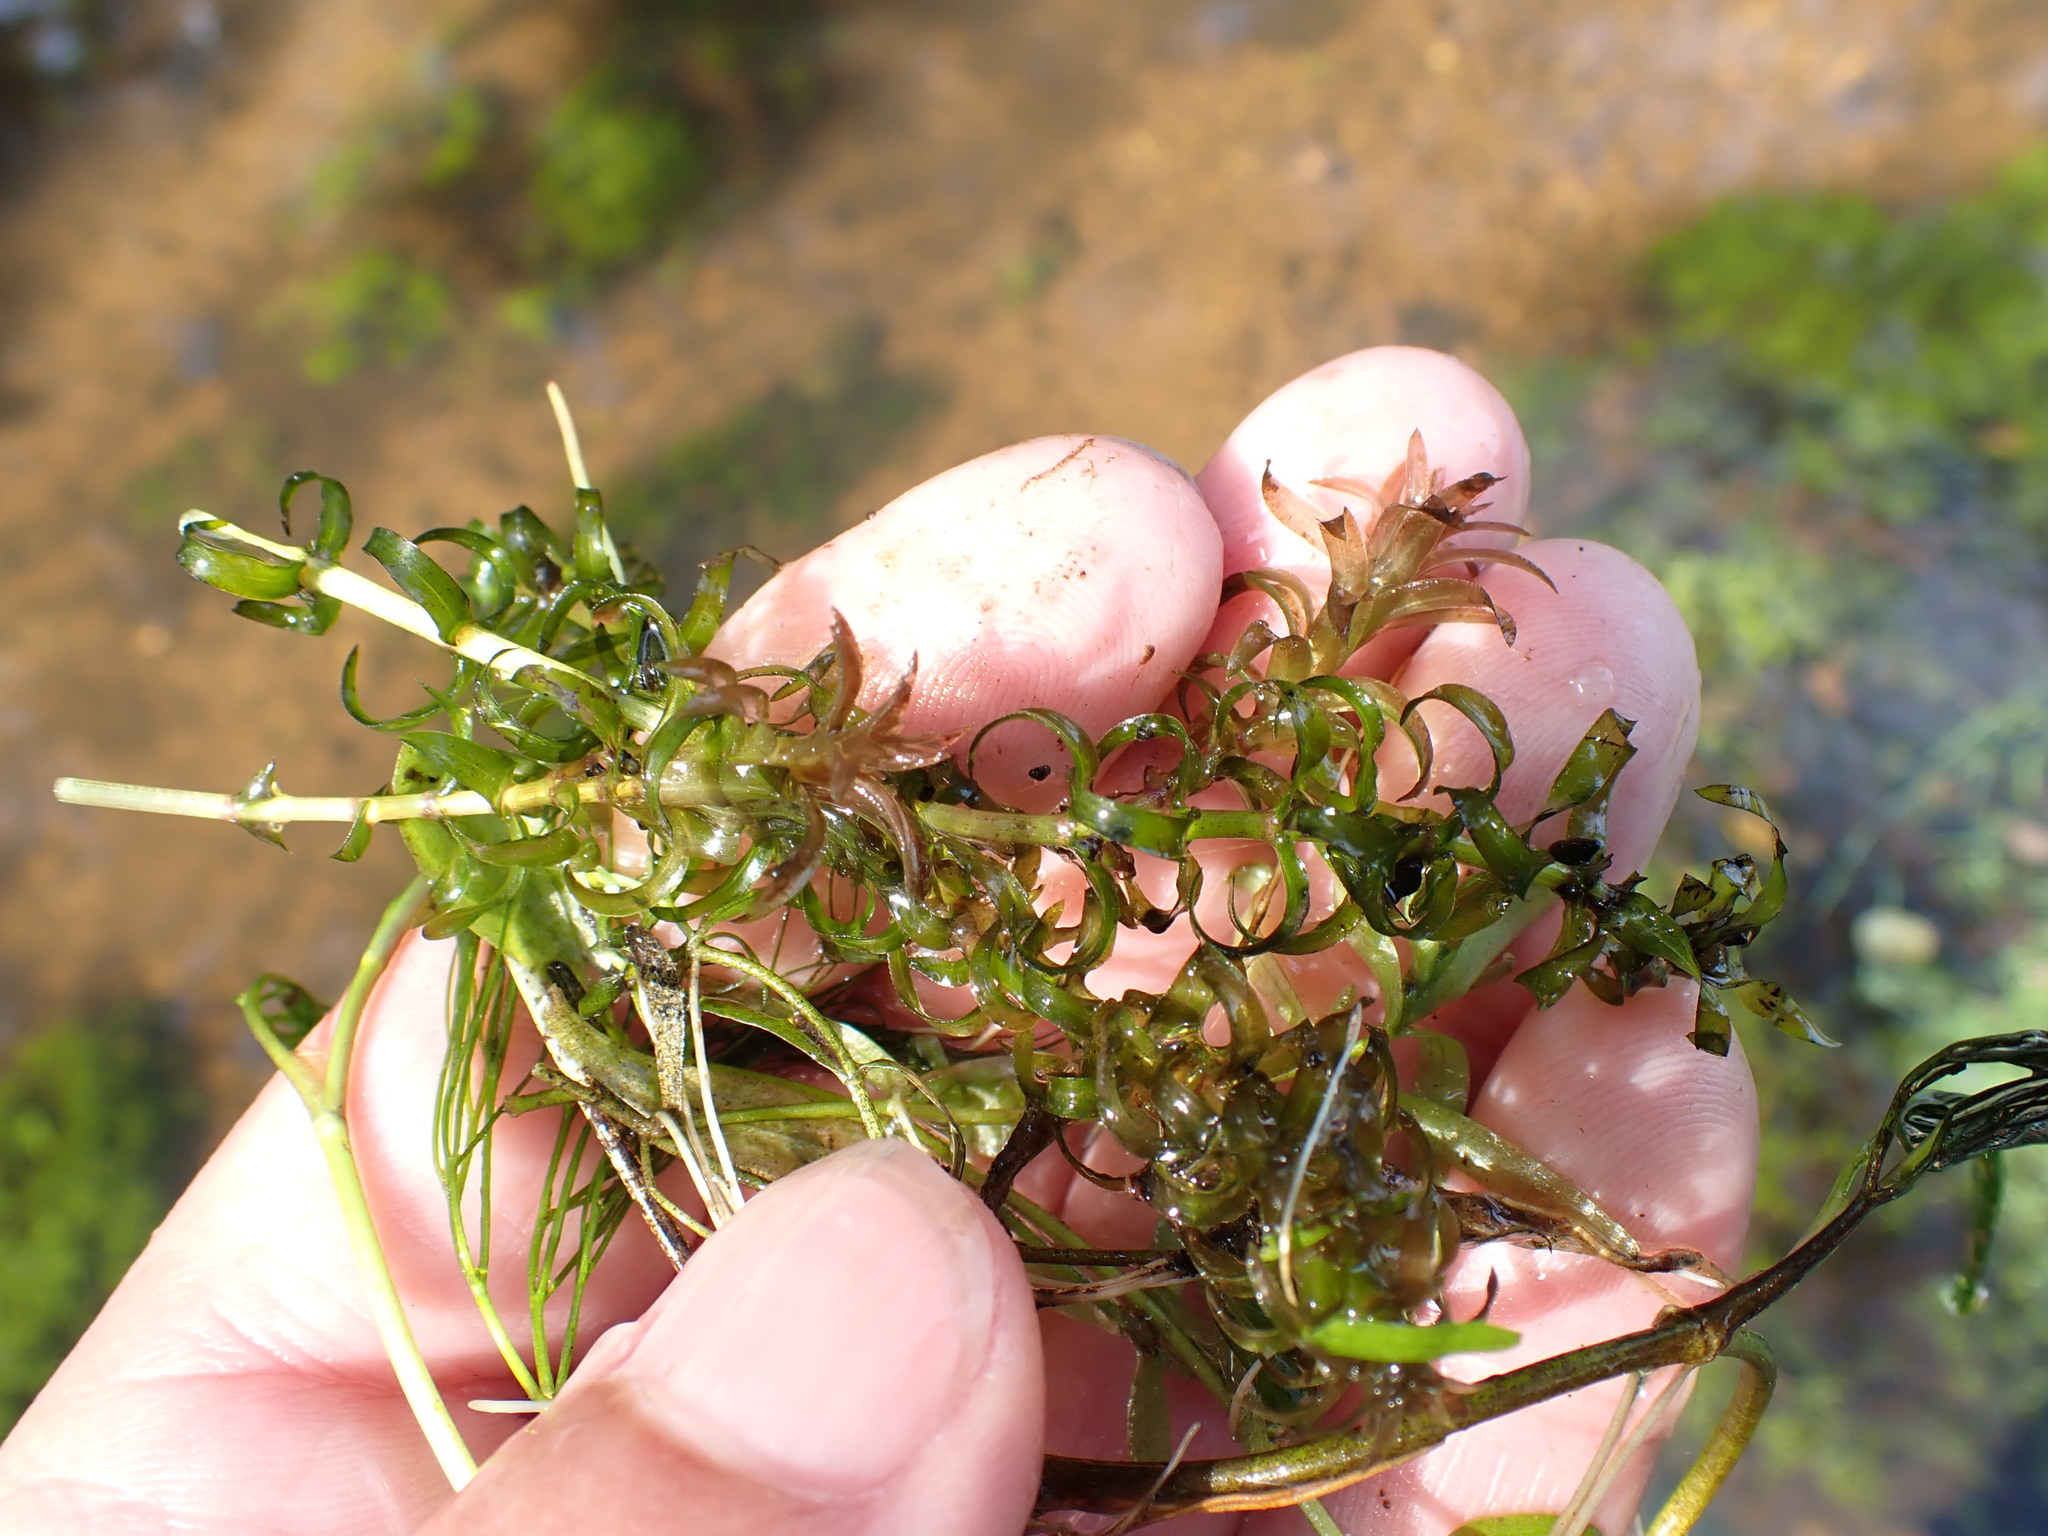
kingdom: Plantae
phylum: Tracheophyta
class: Liliopsida
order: Alismatales
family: Hydrocharitaceae
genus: Elodea
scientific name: Elodea nuttallii
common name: Nuttall's waterweed
